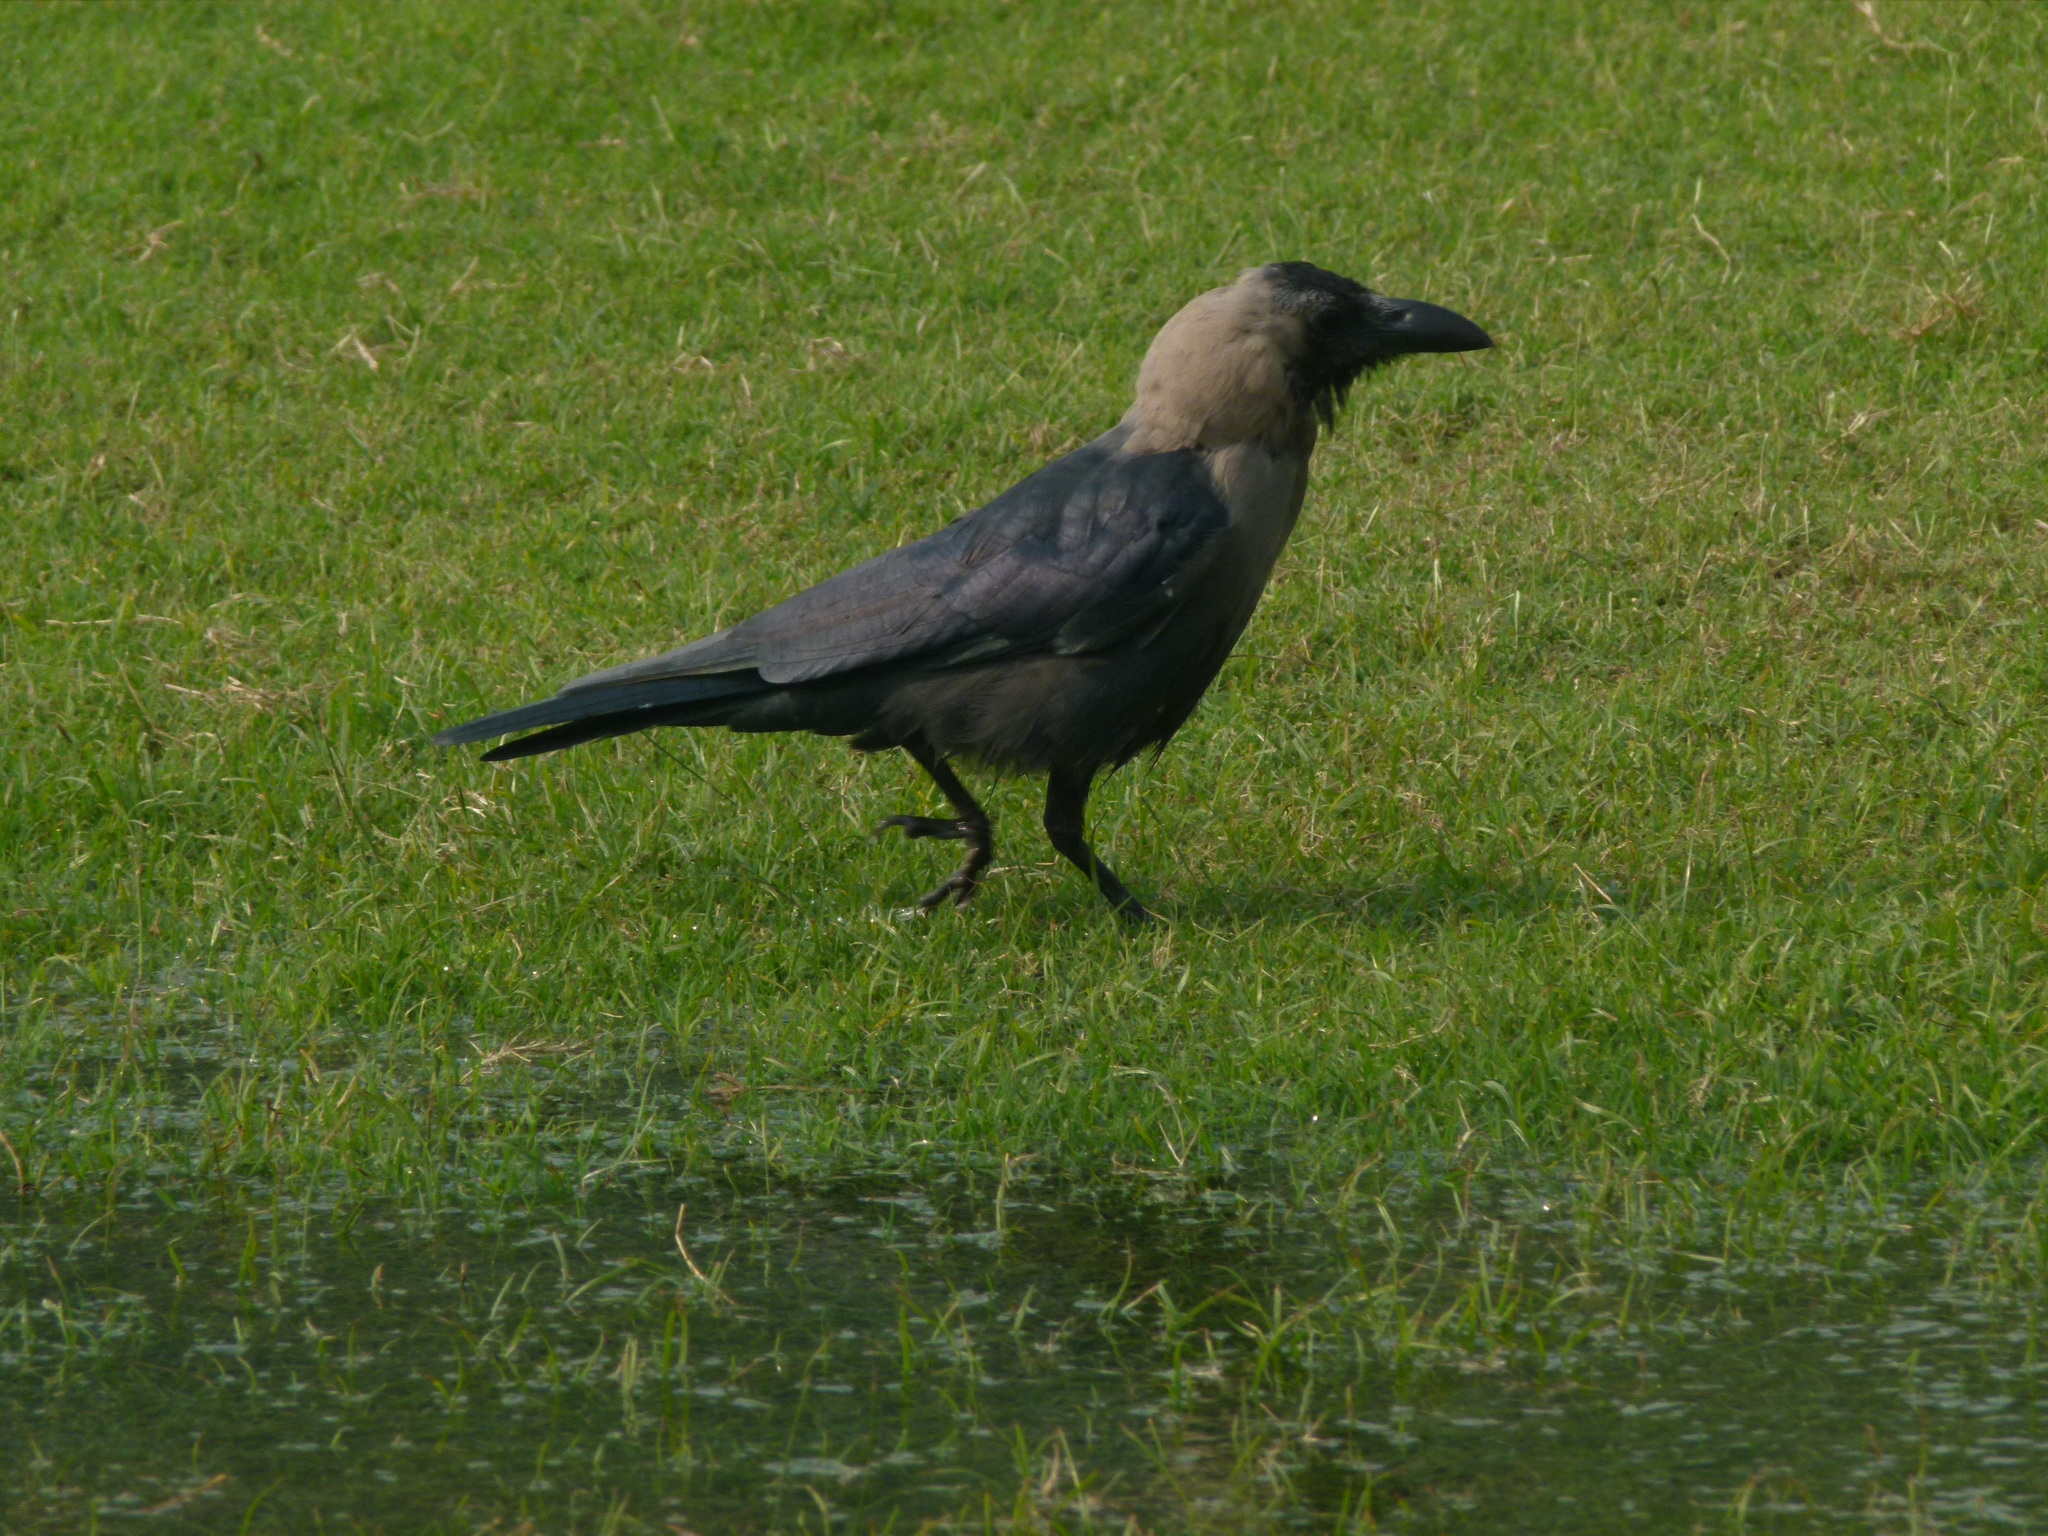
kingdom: Animalia
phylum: Chordata
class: Aves
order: Passeriformes
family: Corvidae
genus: Corvus
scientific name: Corvus splendens
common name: House crow
